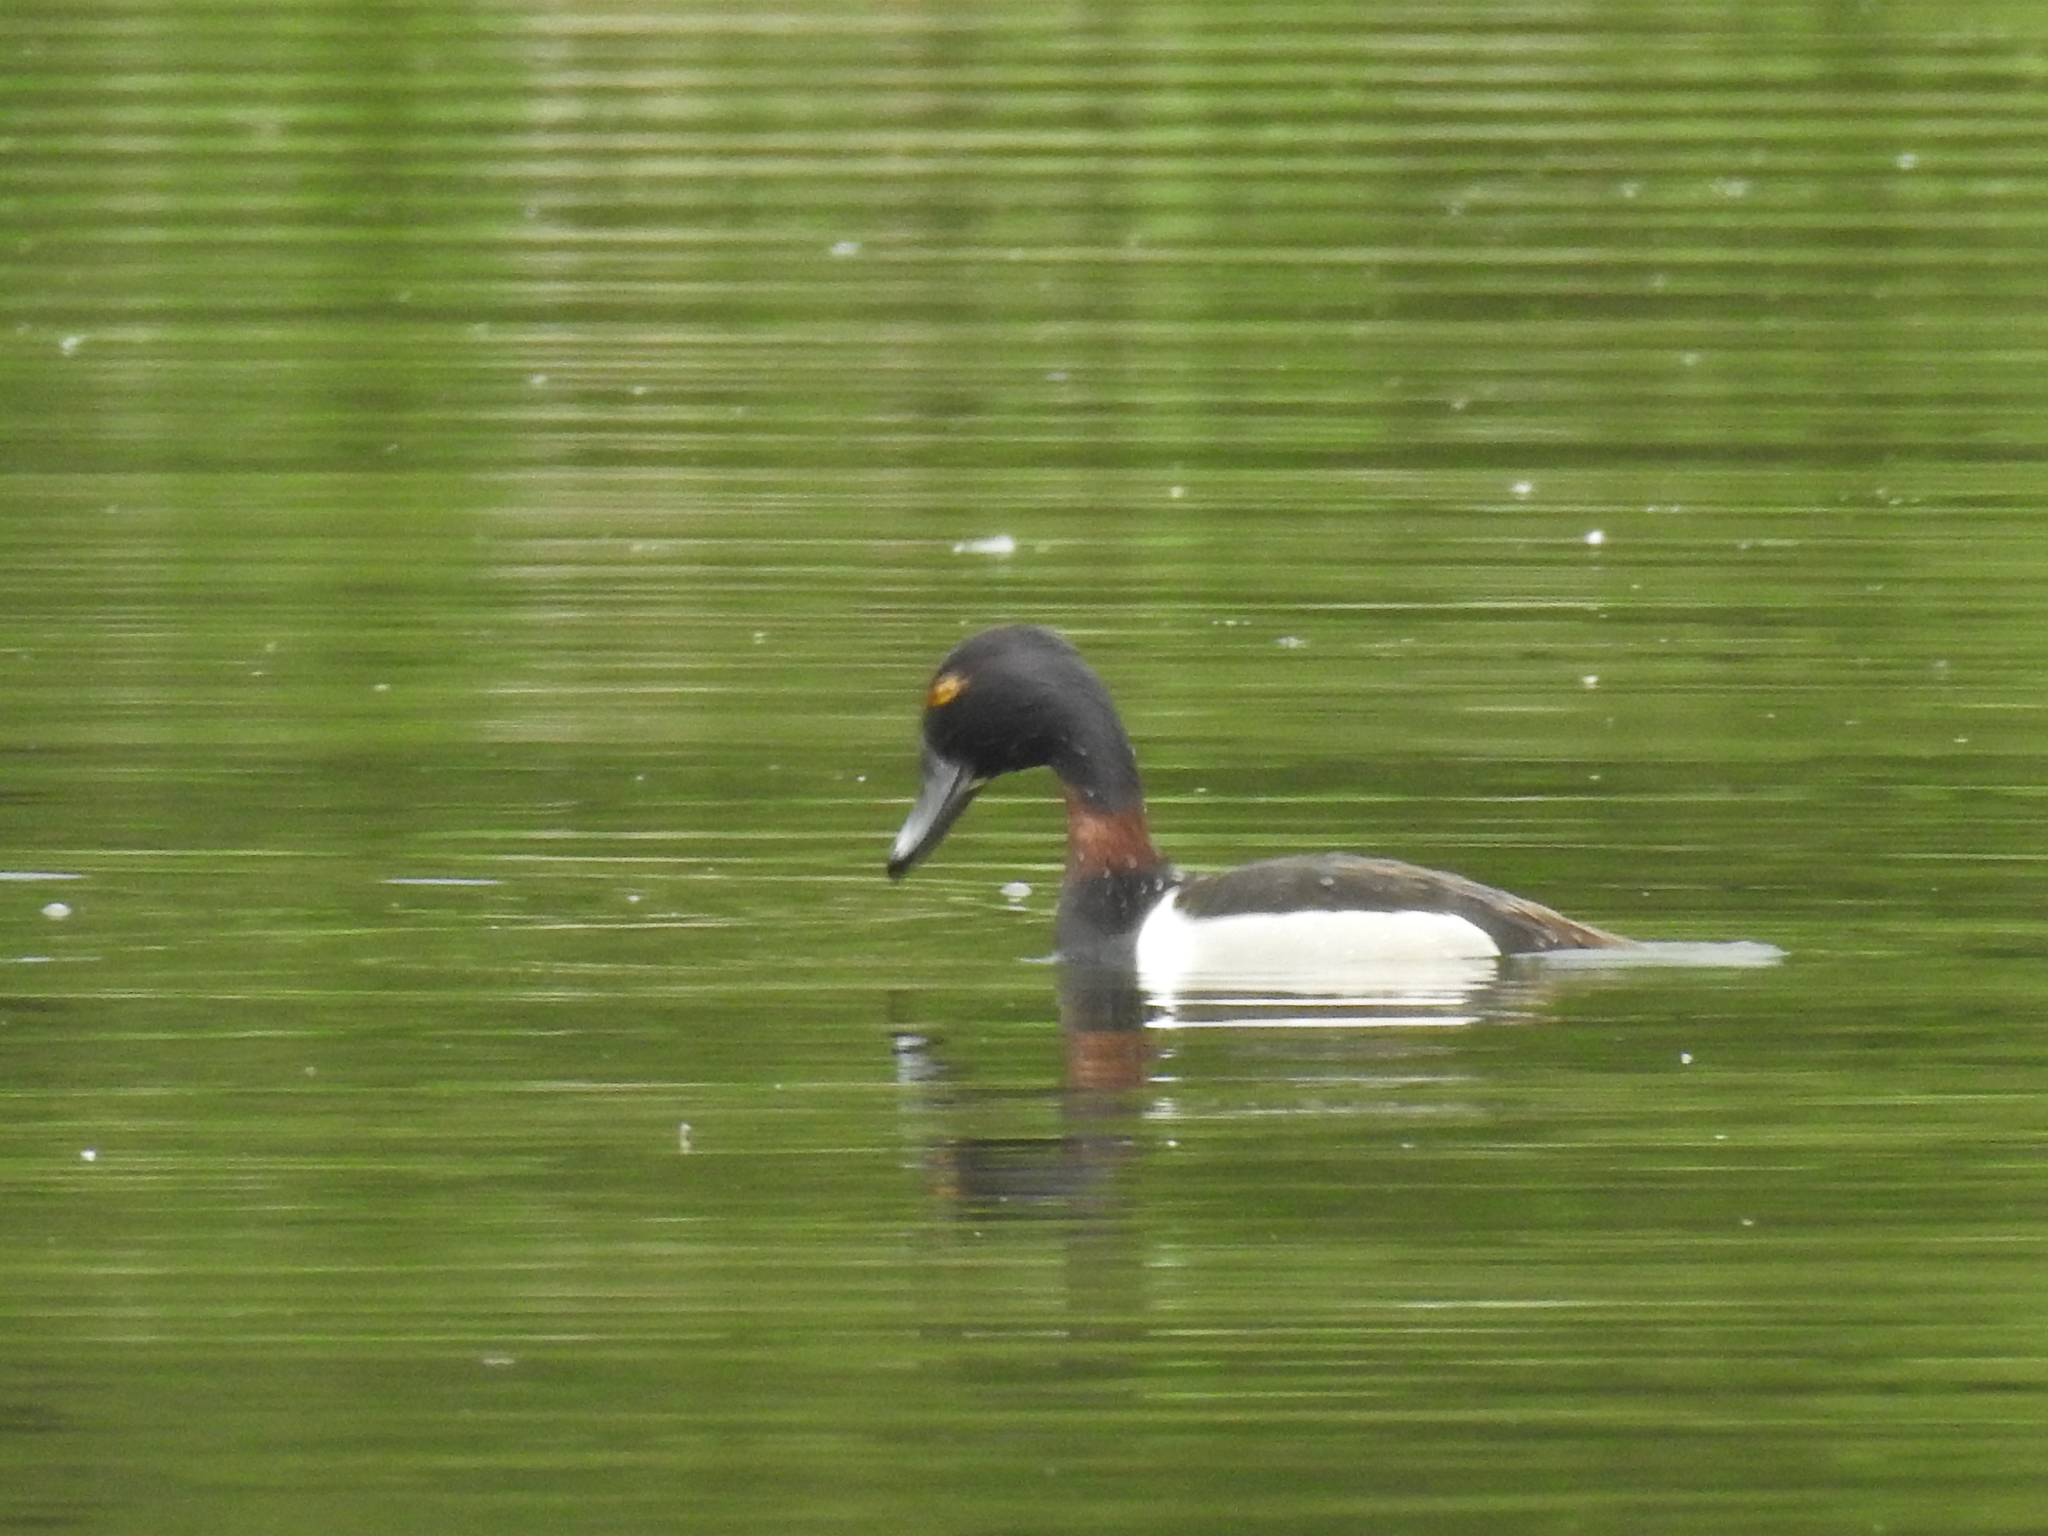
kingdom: Animalia
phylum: Chordata
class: Aves
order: Anseriformes
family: Anatidae
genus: Aythya
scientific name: Aythya collaris
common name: Ring-necked duck
